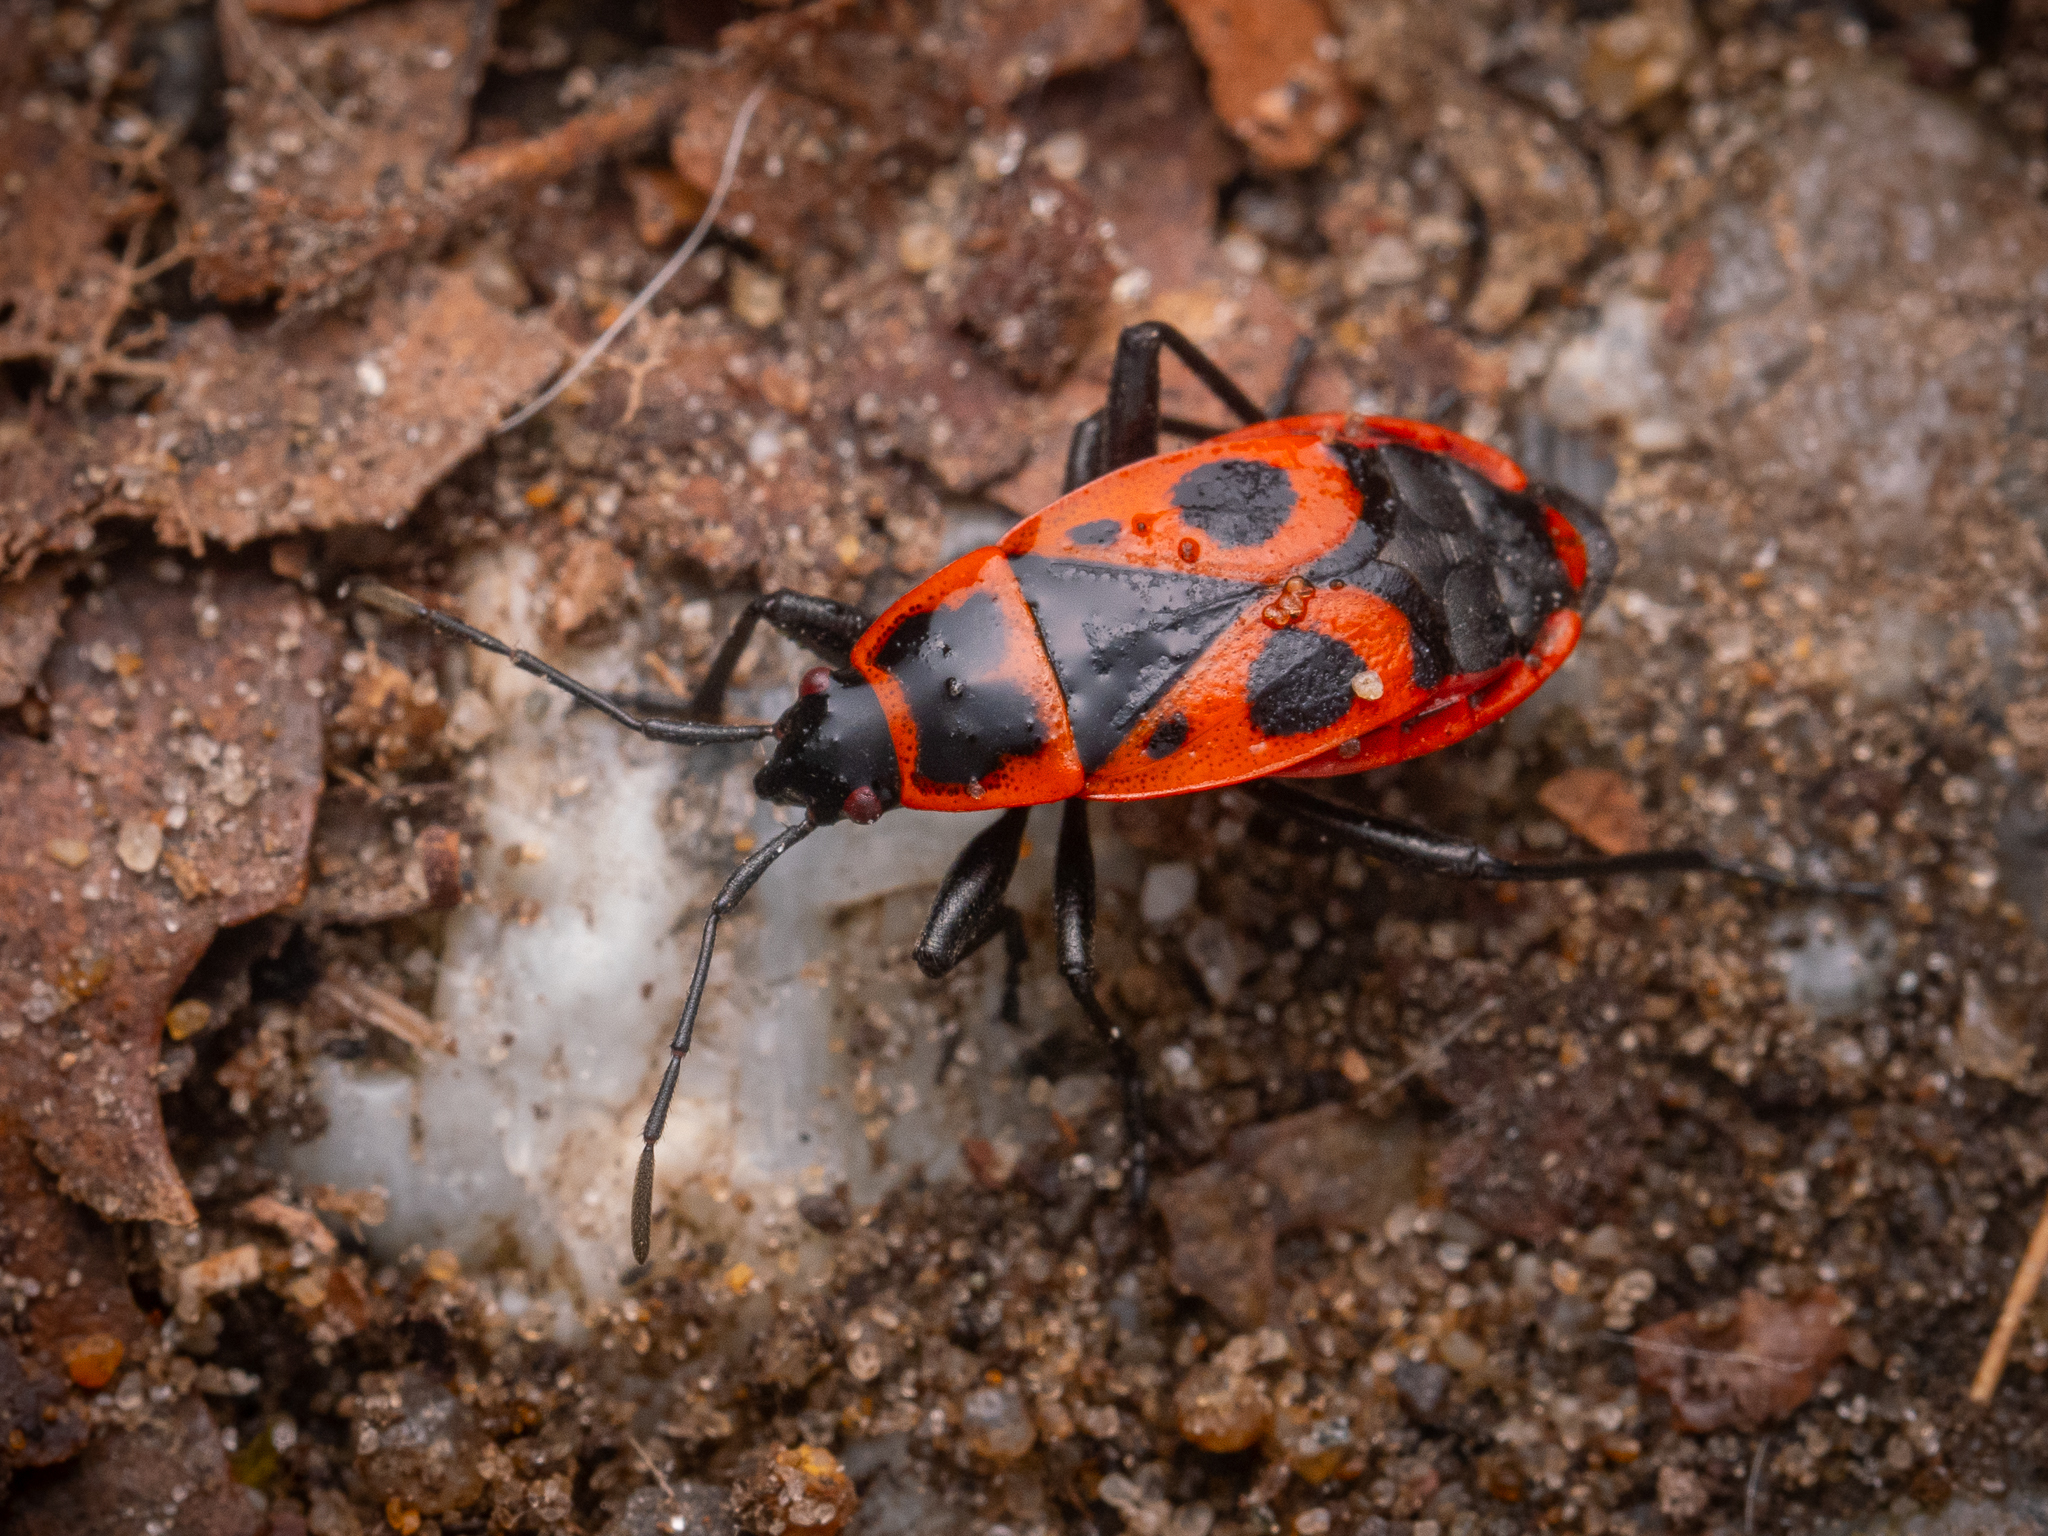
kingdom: Animalia
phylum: Arthropoda
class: Insecta
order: Hemiptera
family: Pyrrhocoridae
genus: Pyrrhocoris
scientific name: Pyrrhocoris apterus
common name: Firebug
